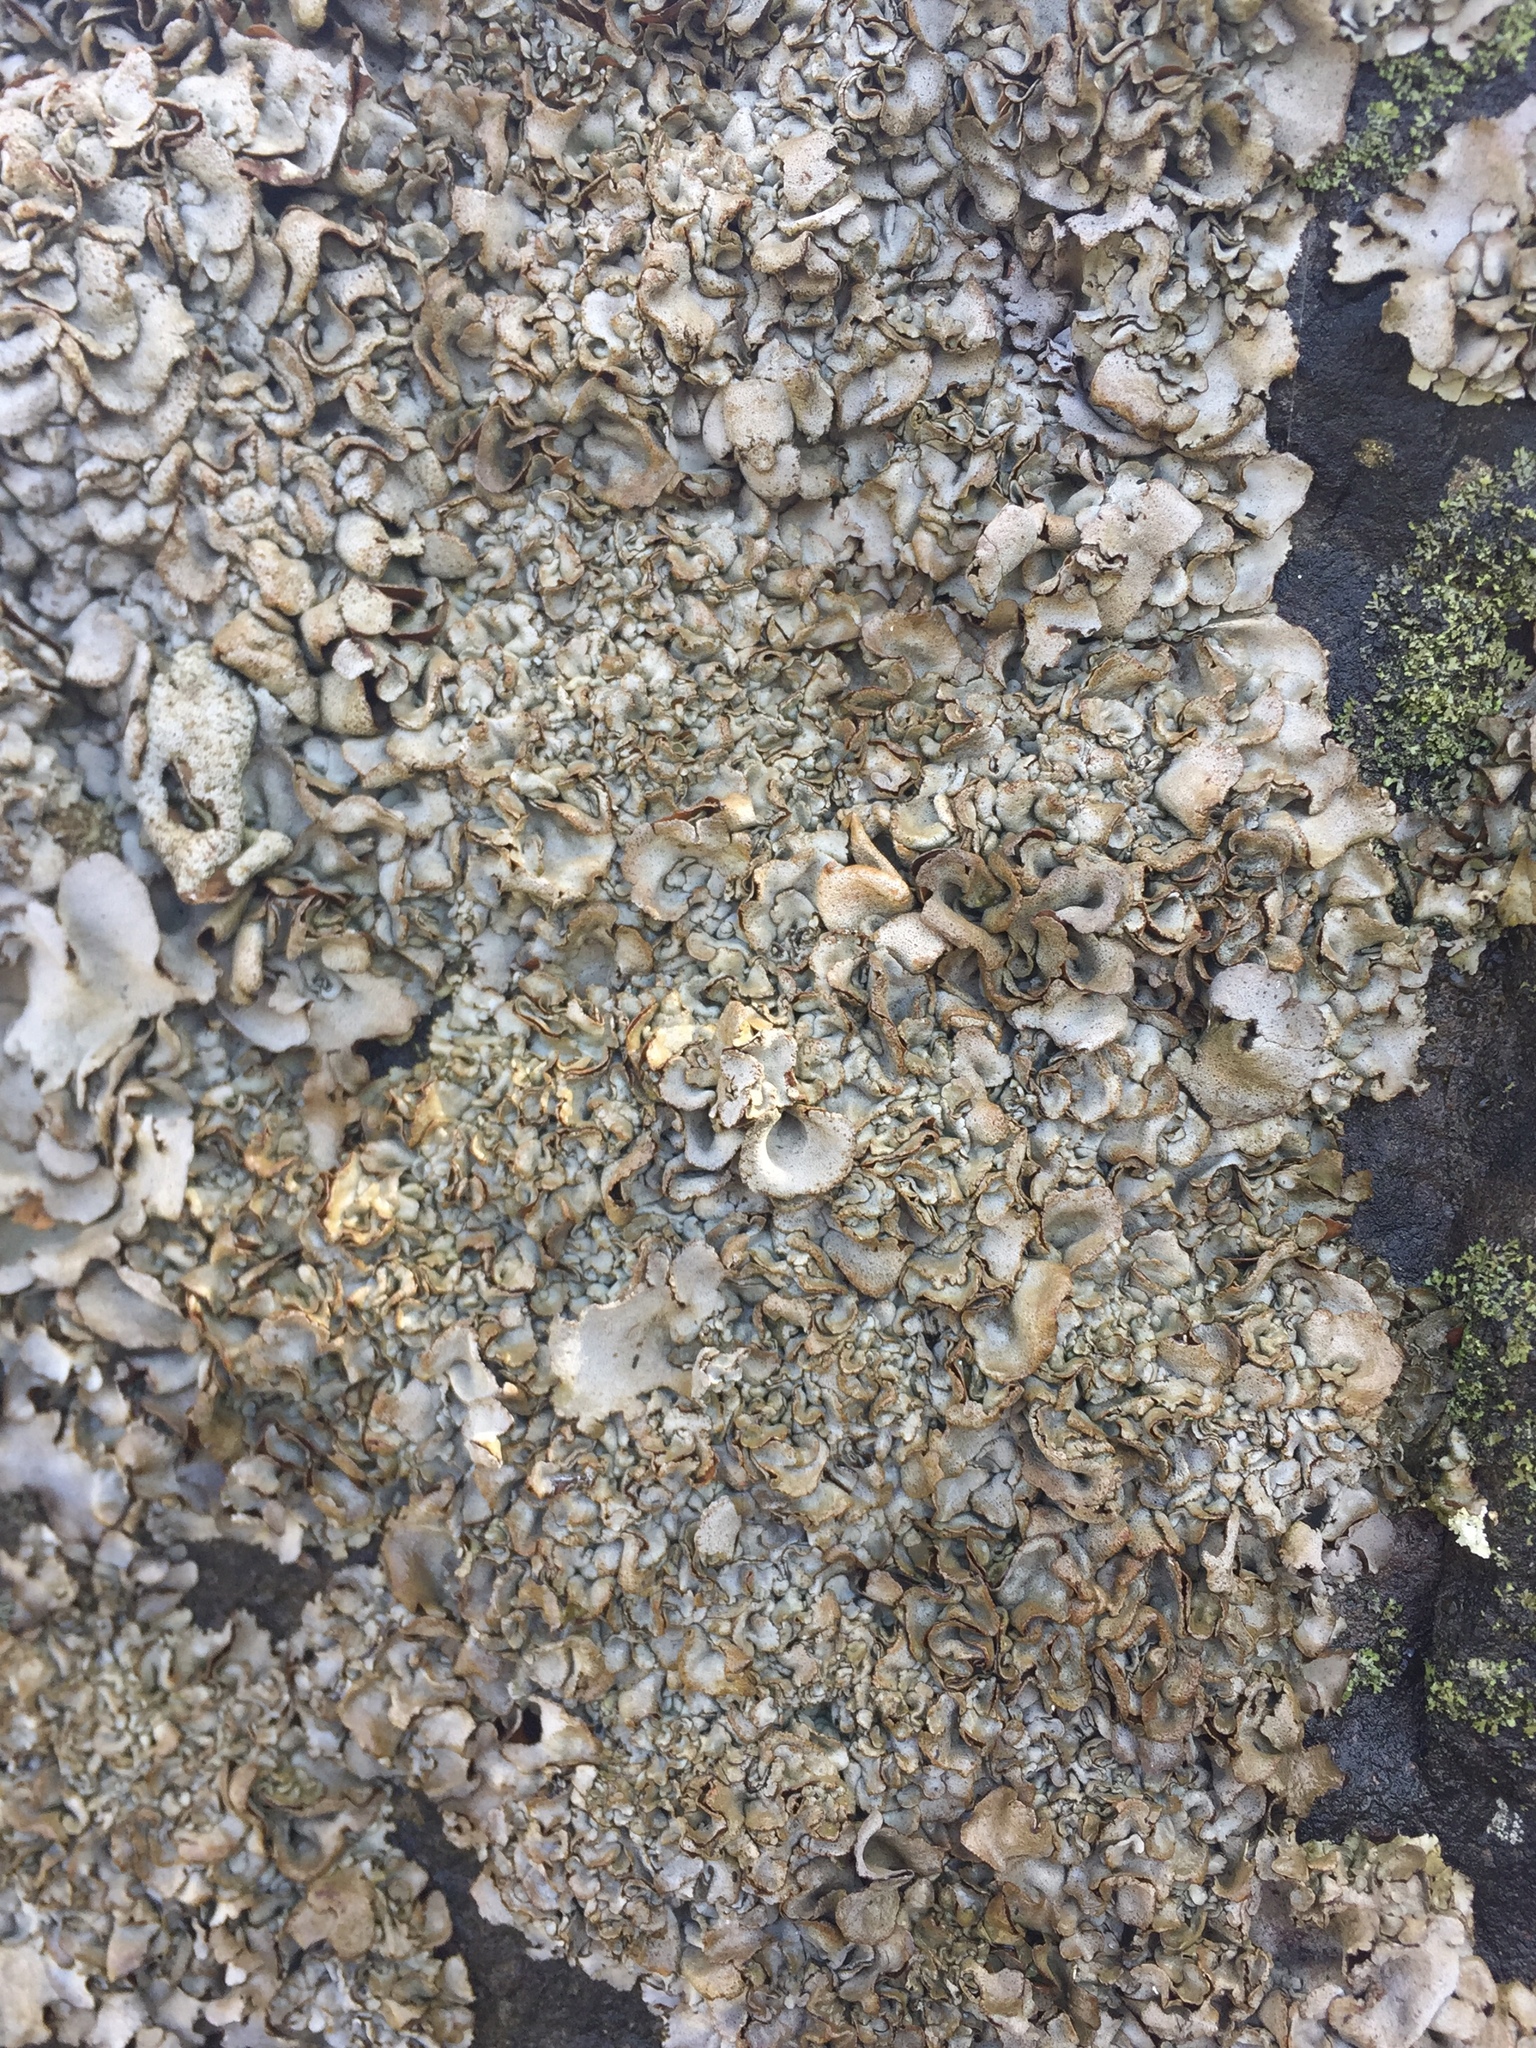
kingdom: Fungi
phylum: Ascomycota
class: Eurotiomycetes
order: Verrucariales
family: Verrucariaceae
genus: Dermatocarpon
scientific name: Dermatocarpon intestiniforme
